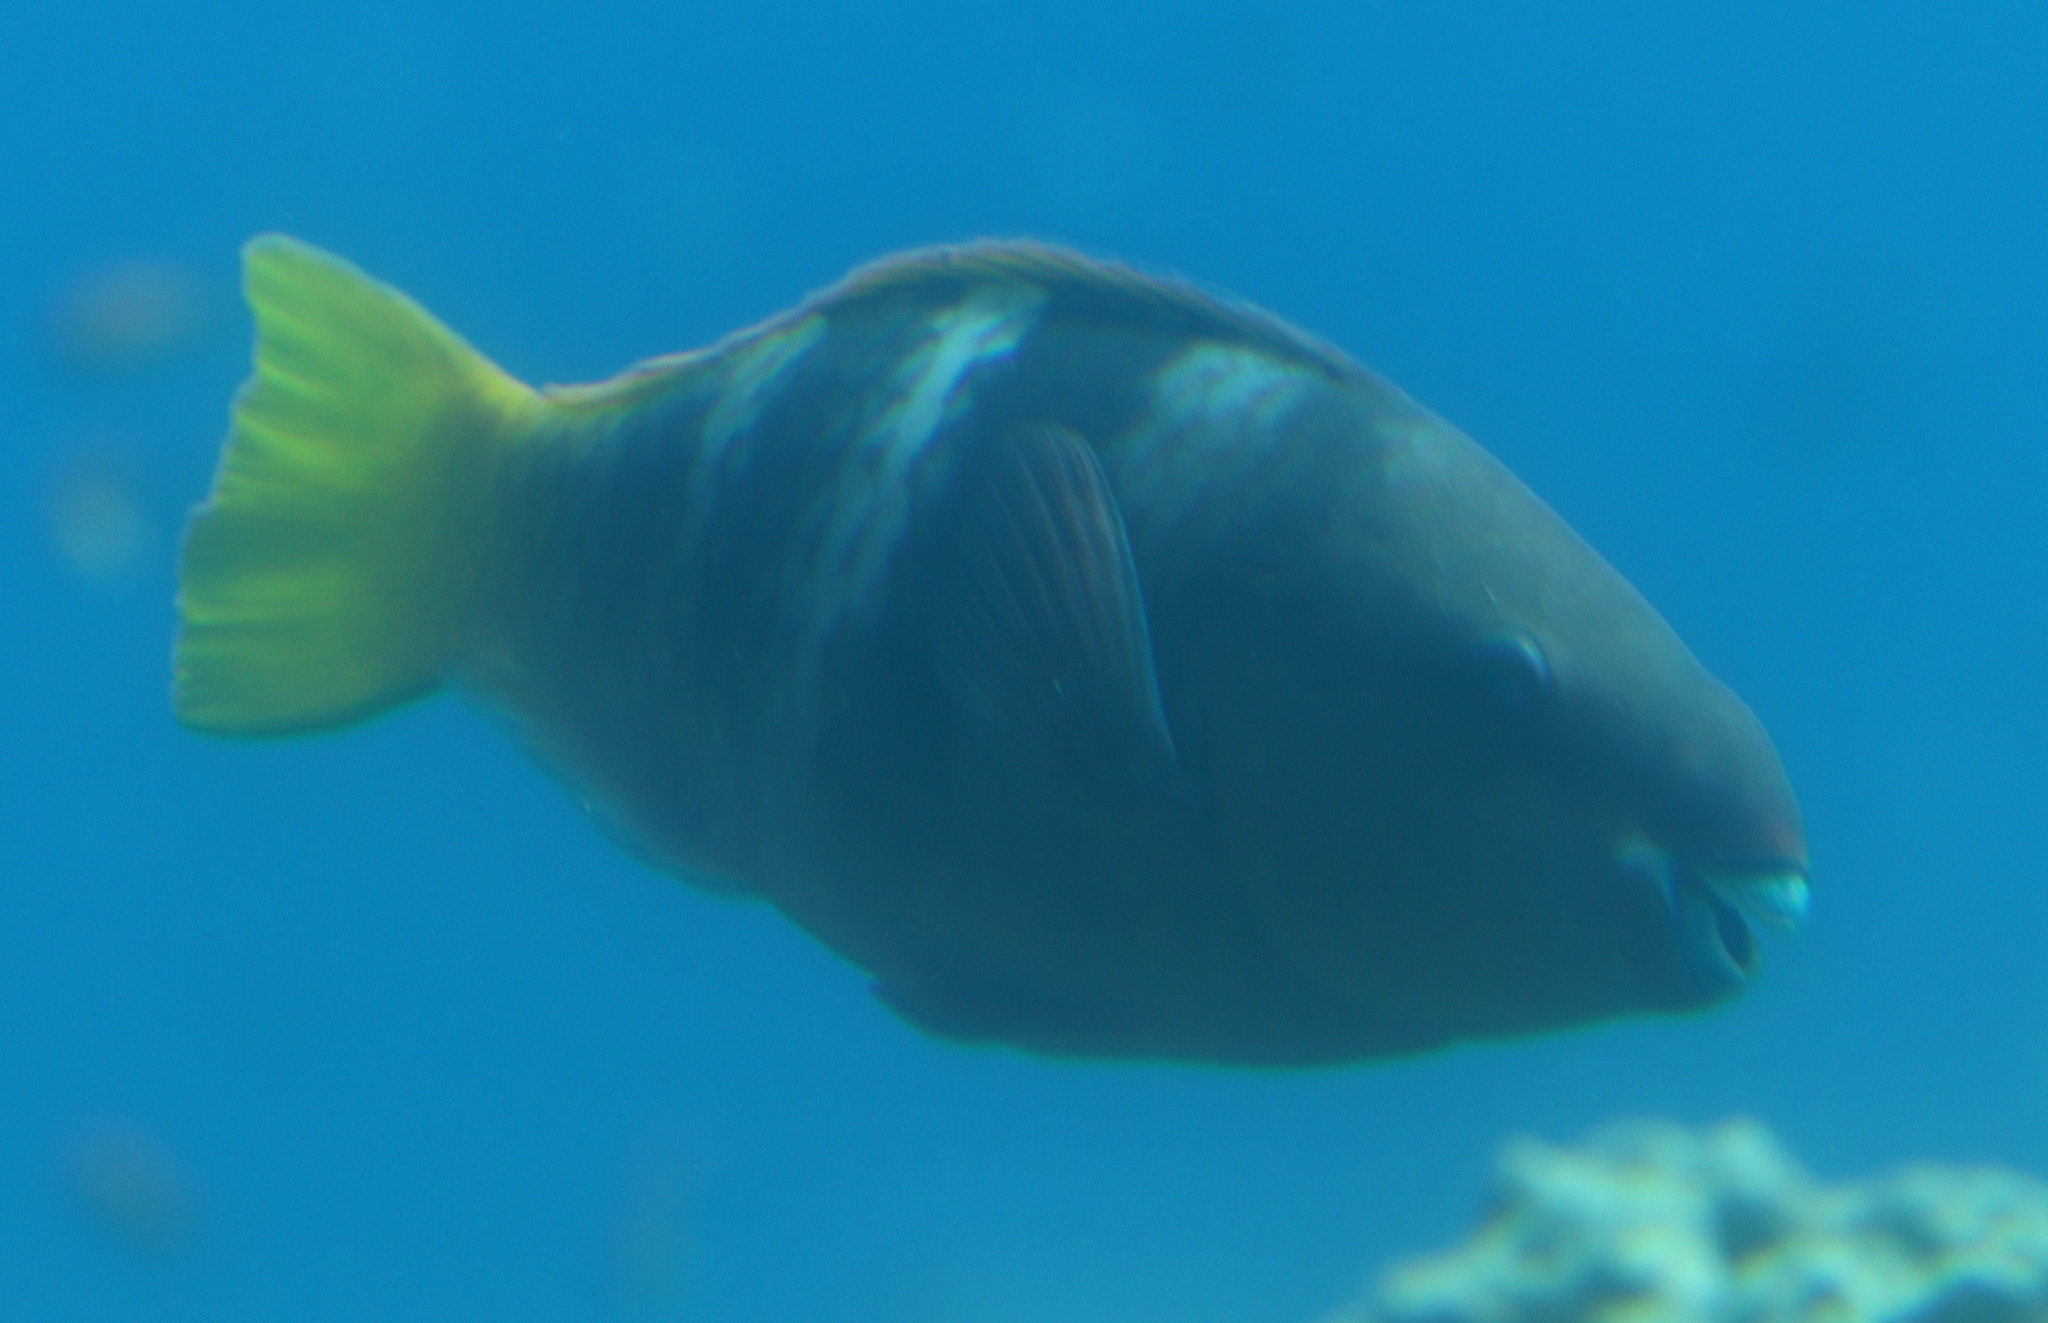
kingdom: Animalia
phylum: Chordata
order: Perciformes
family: Scaridae
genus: Scarus
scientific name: Scarus ferrugineus
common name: Rusty parrotfish
